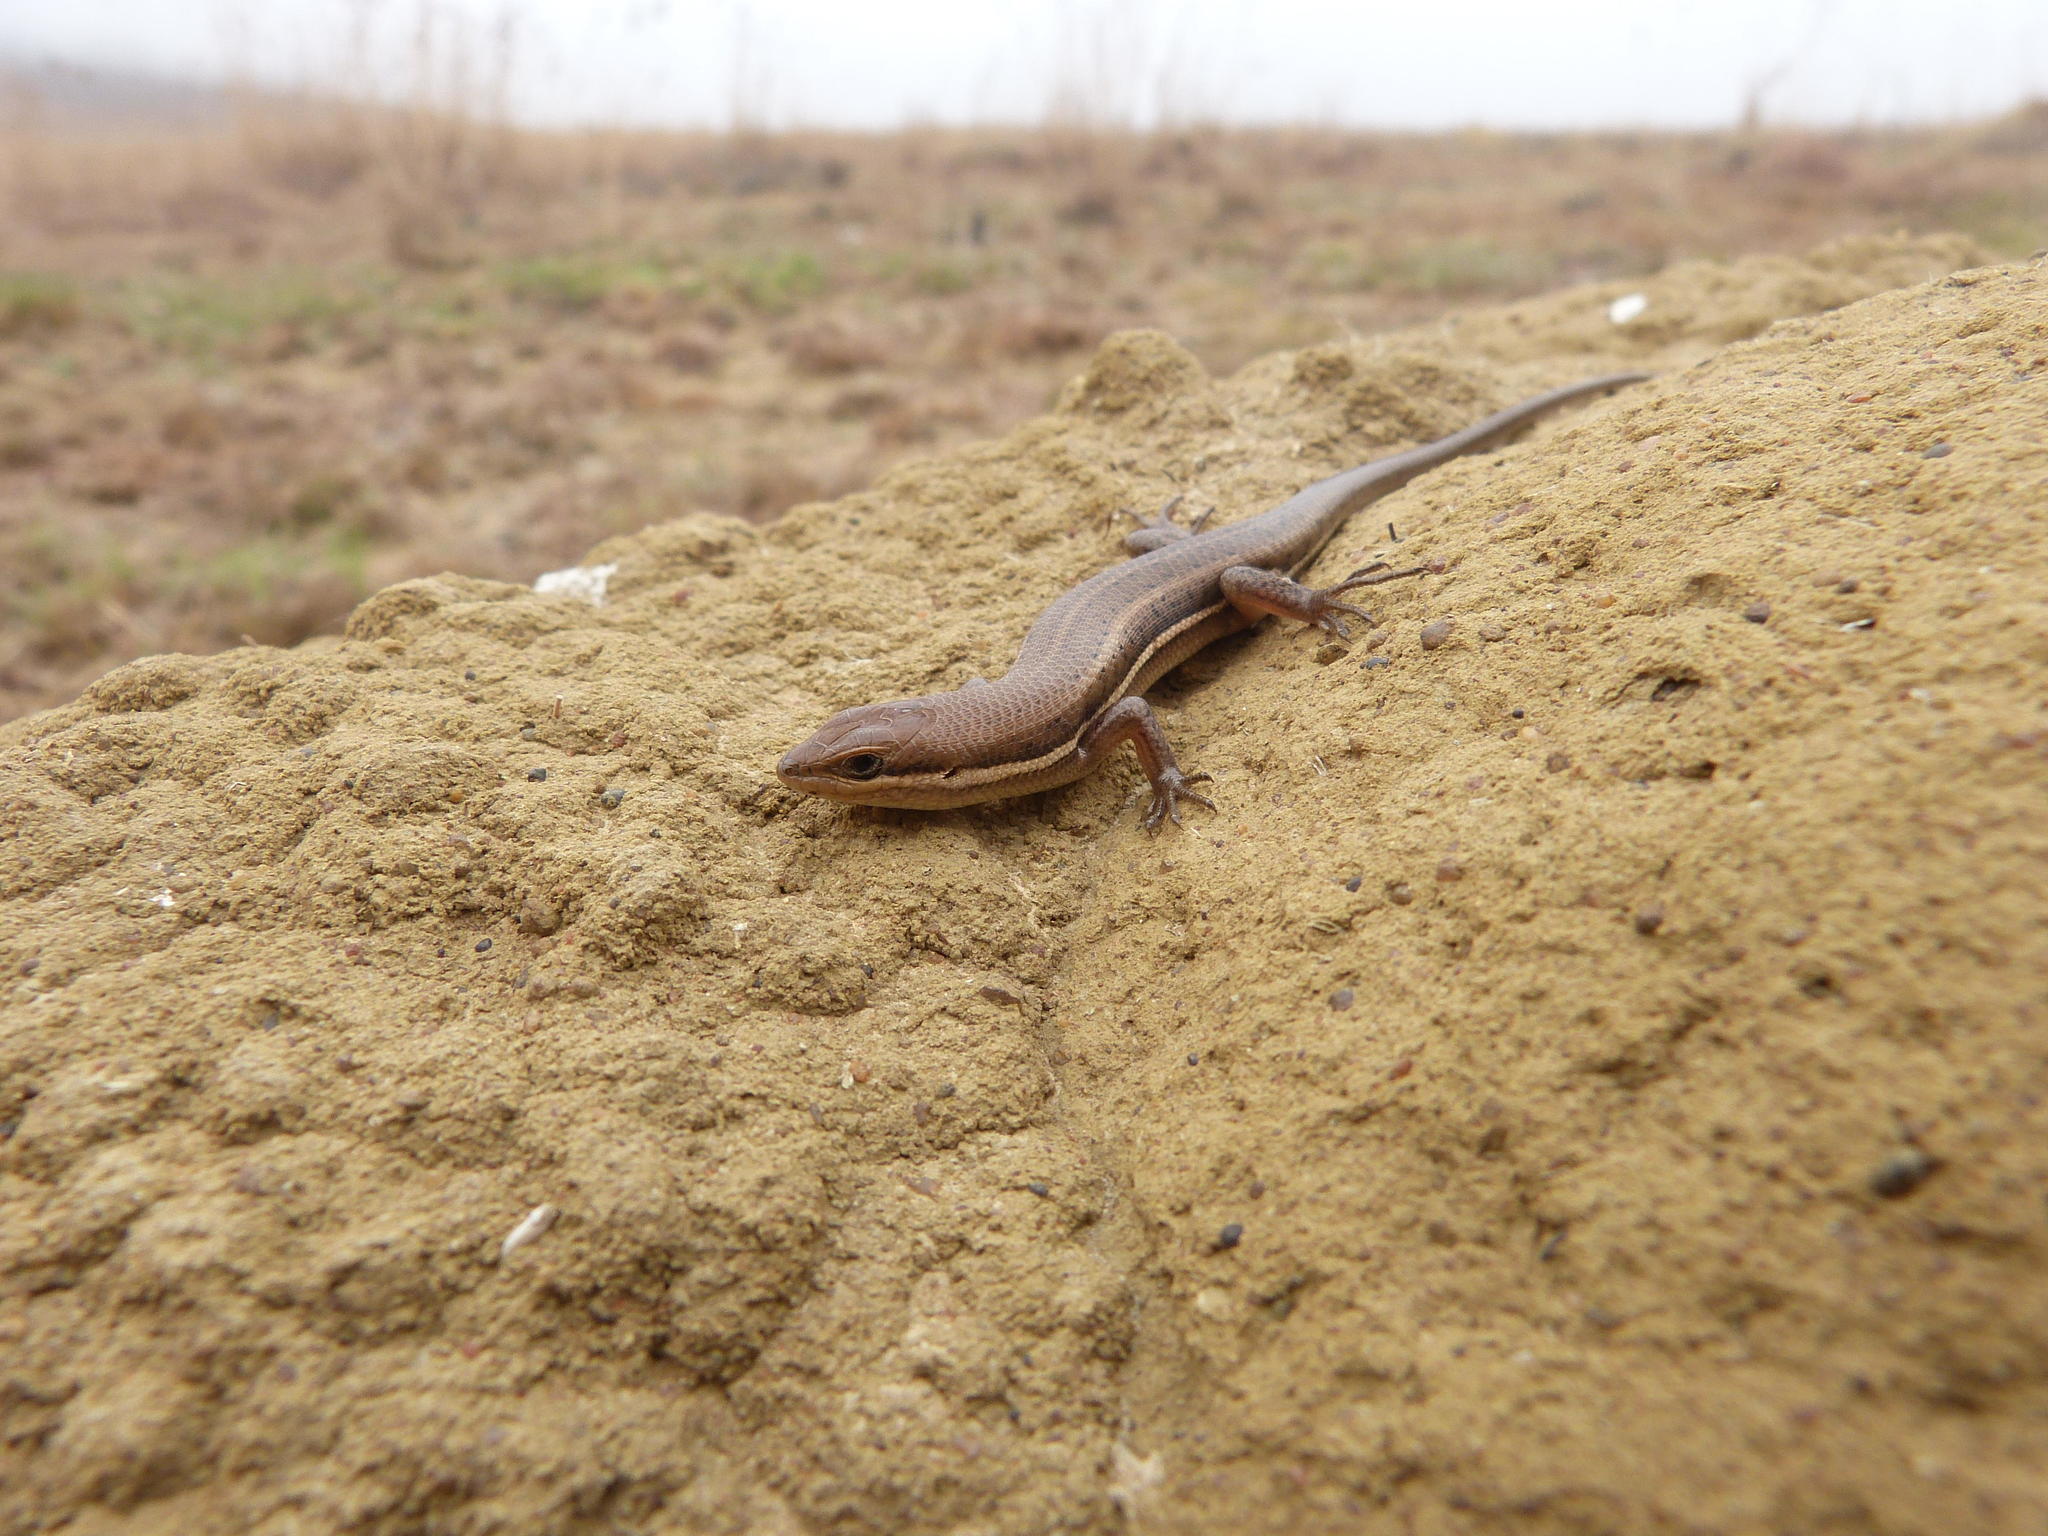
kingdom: Animalia
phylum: Chordata
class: Squamata
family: Scincidae
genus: Trachylepis
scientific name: Trachylepis varia
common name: Eastern variable skink
